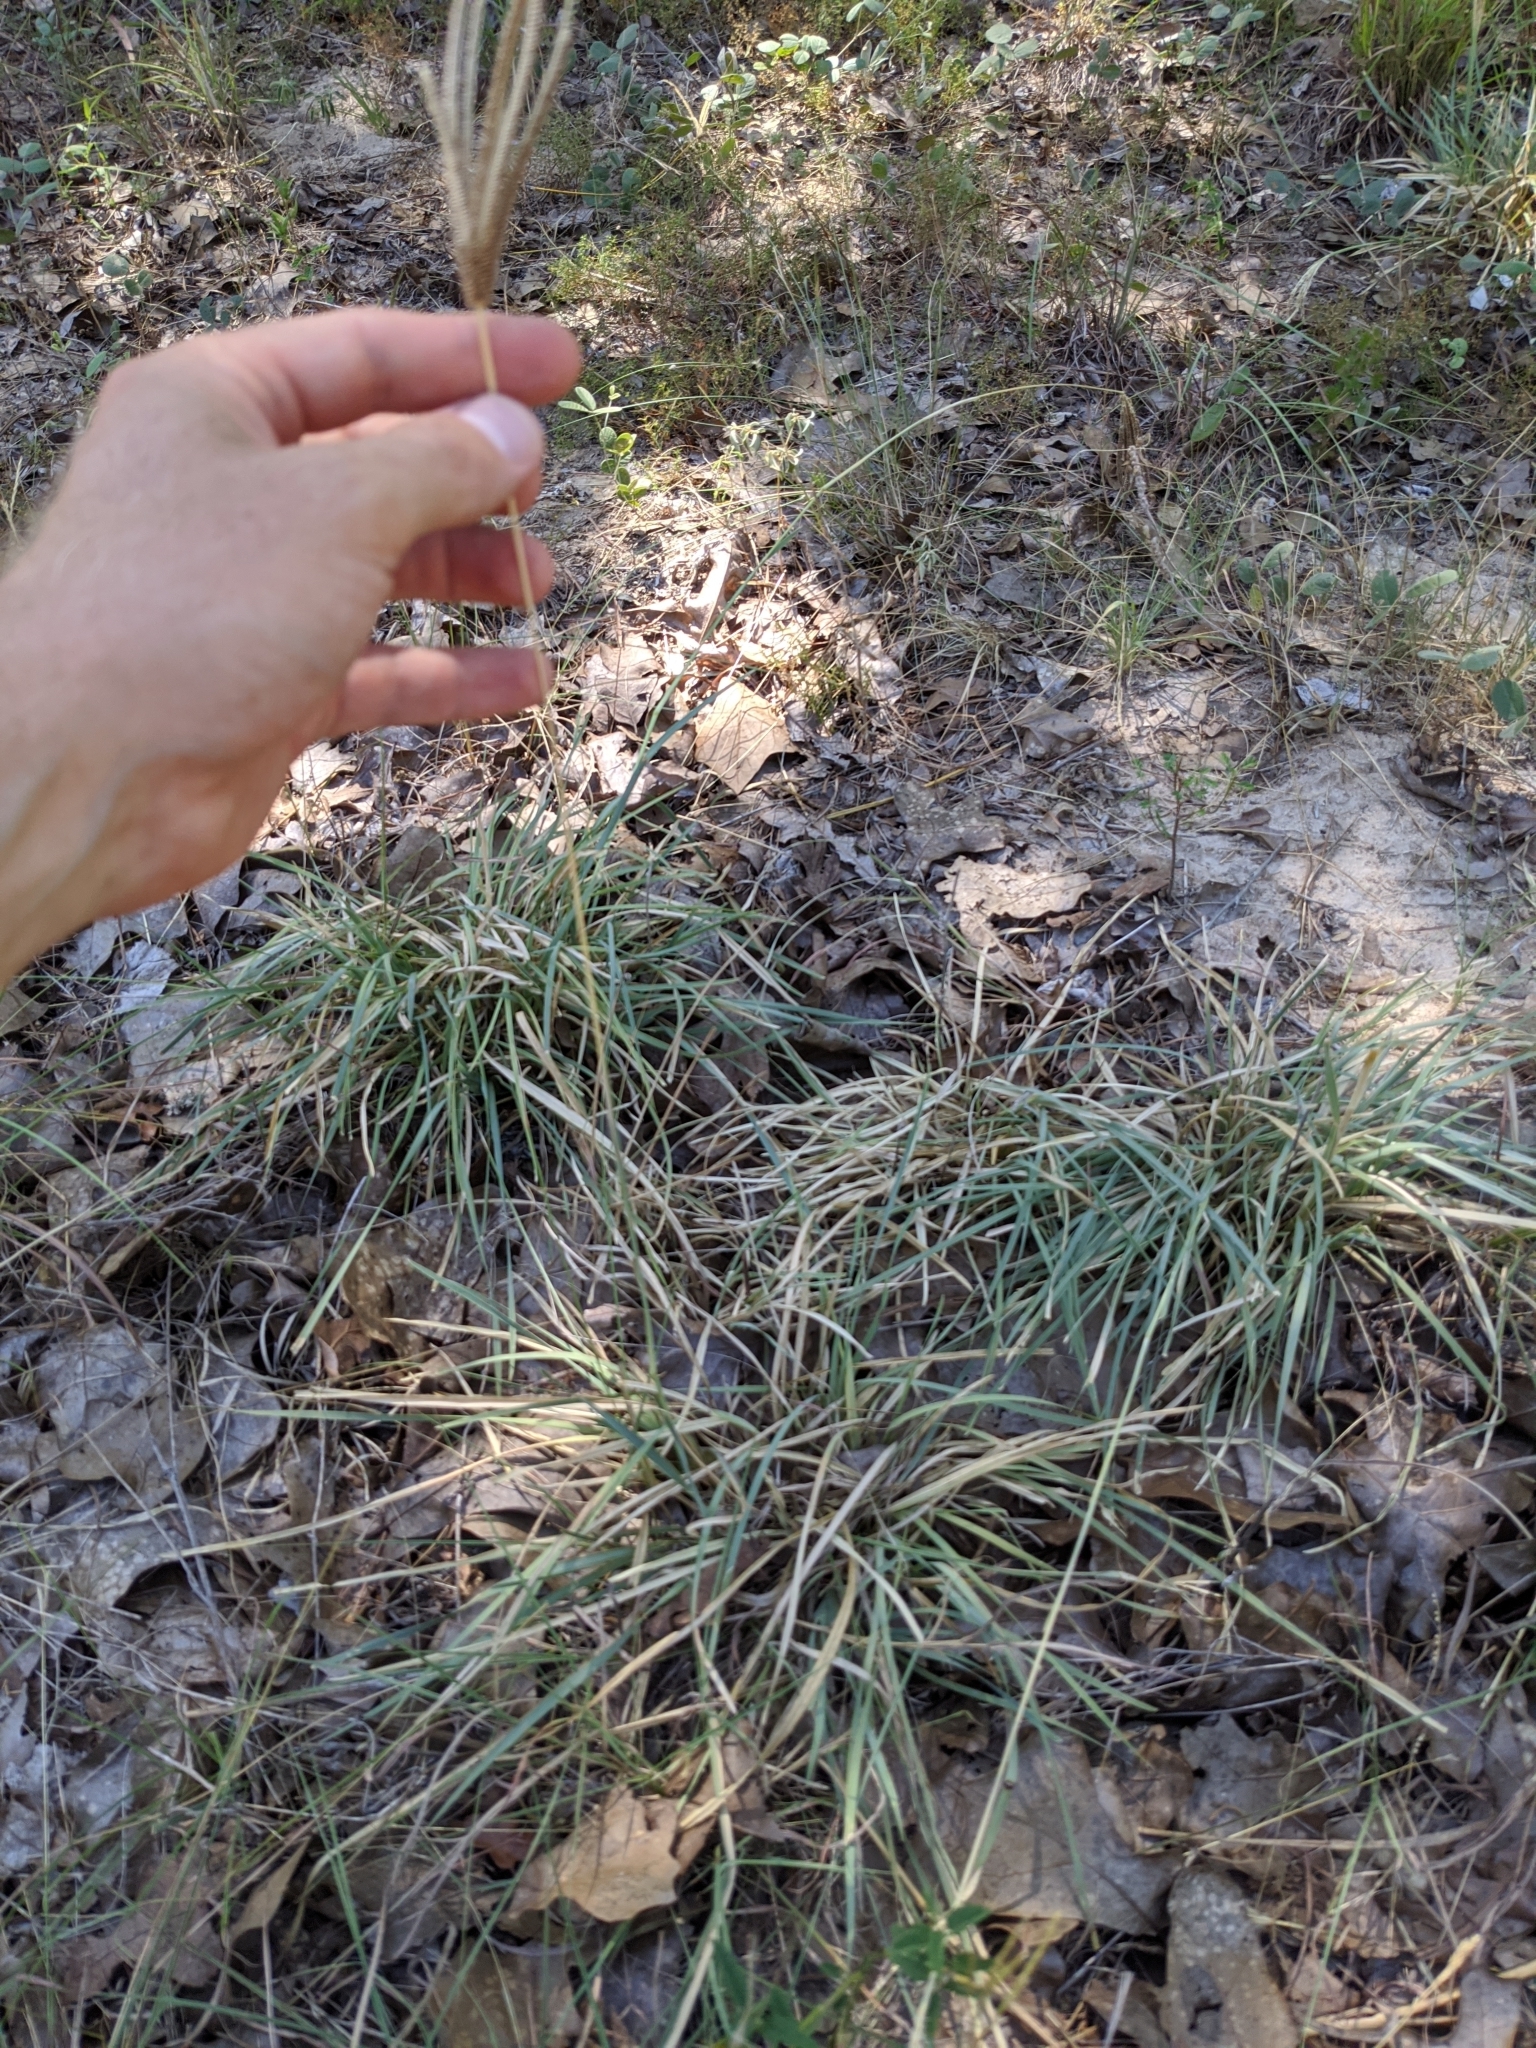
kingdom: Plantae
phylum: Tracheophyta
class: Liliopsida
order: Poales
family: Poaceae
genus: Eustachys
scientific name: Eustachys caribaea
